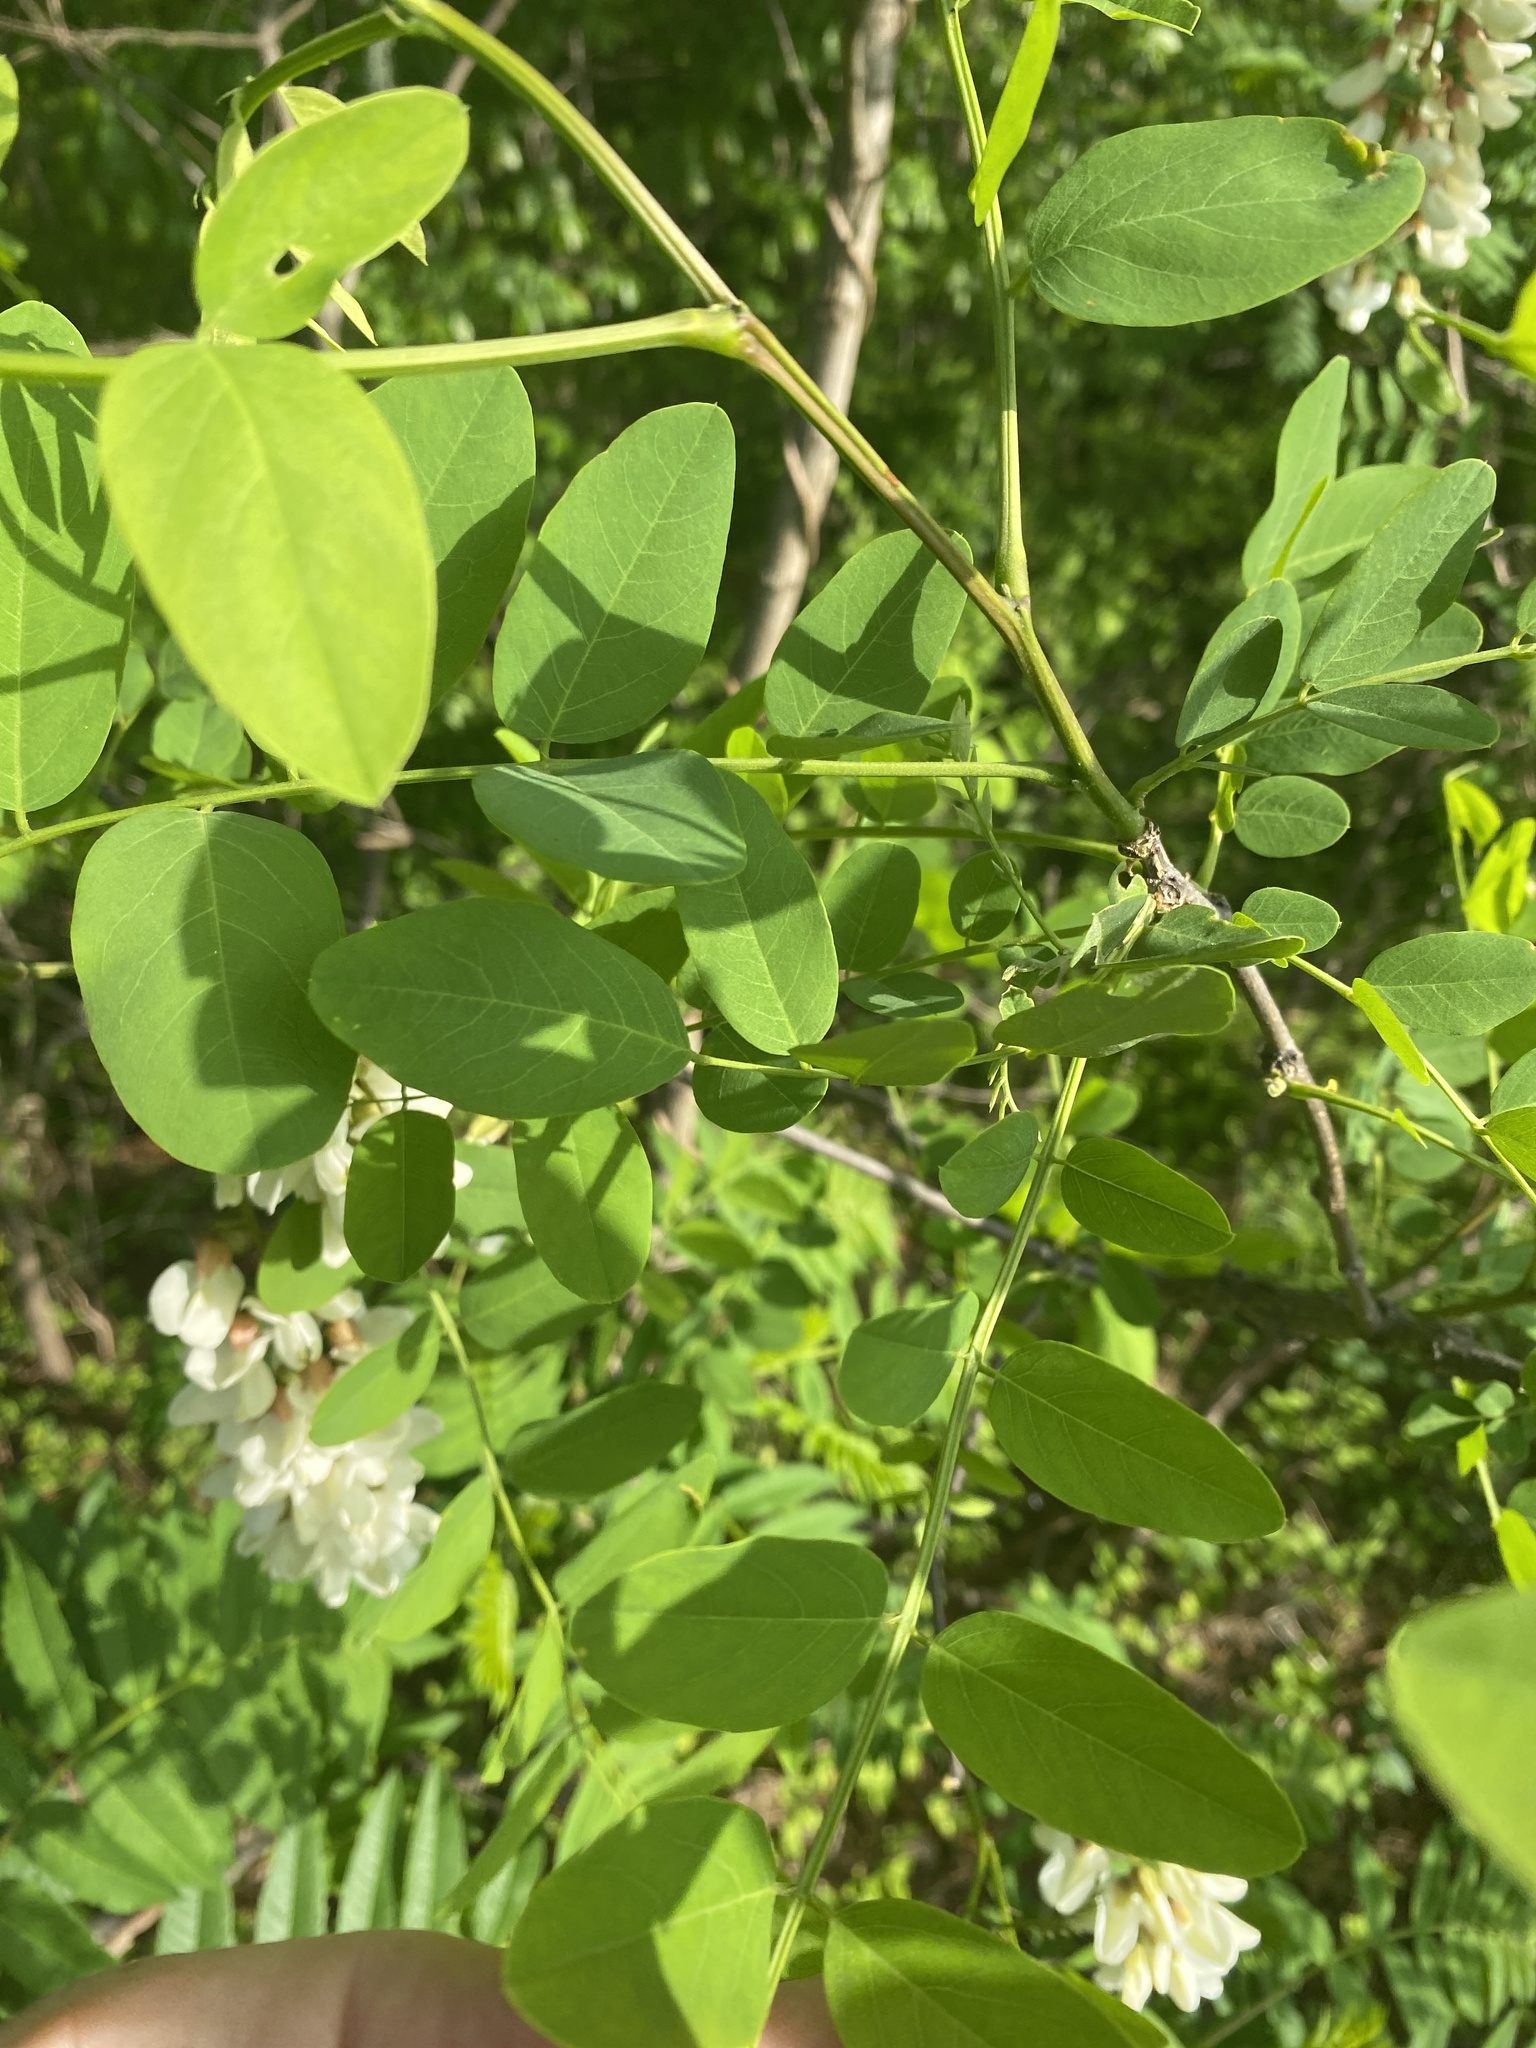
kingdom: Plantae
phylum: Tracheophyta
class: Magnoliopsida
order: Fabales
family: Fabaceae
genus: Robinia
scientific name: Robinia pseudoacacia
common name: Black locust
